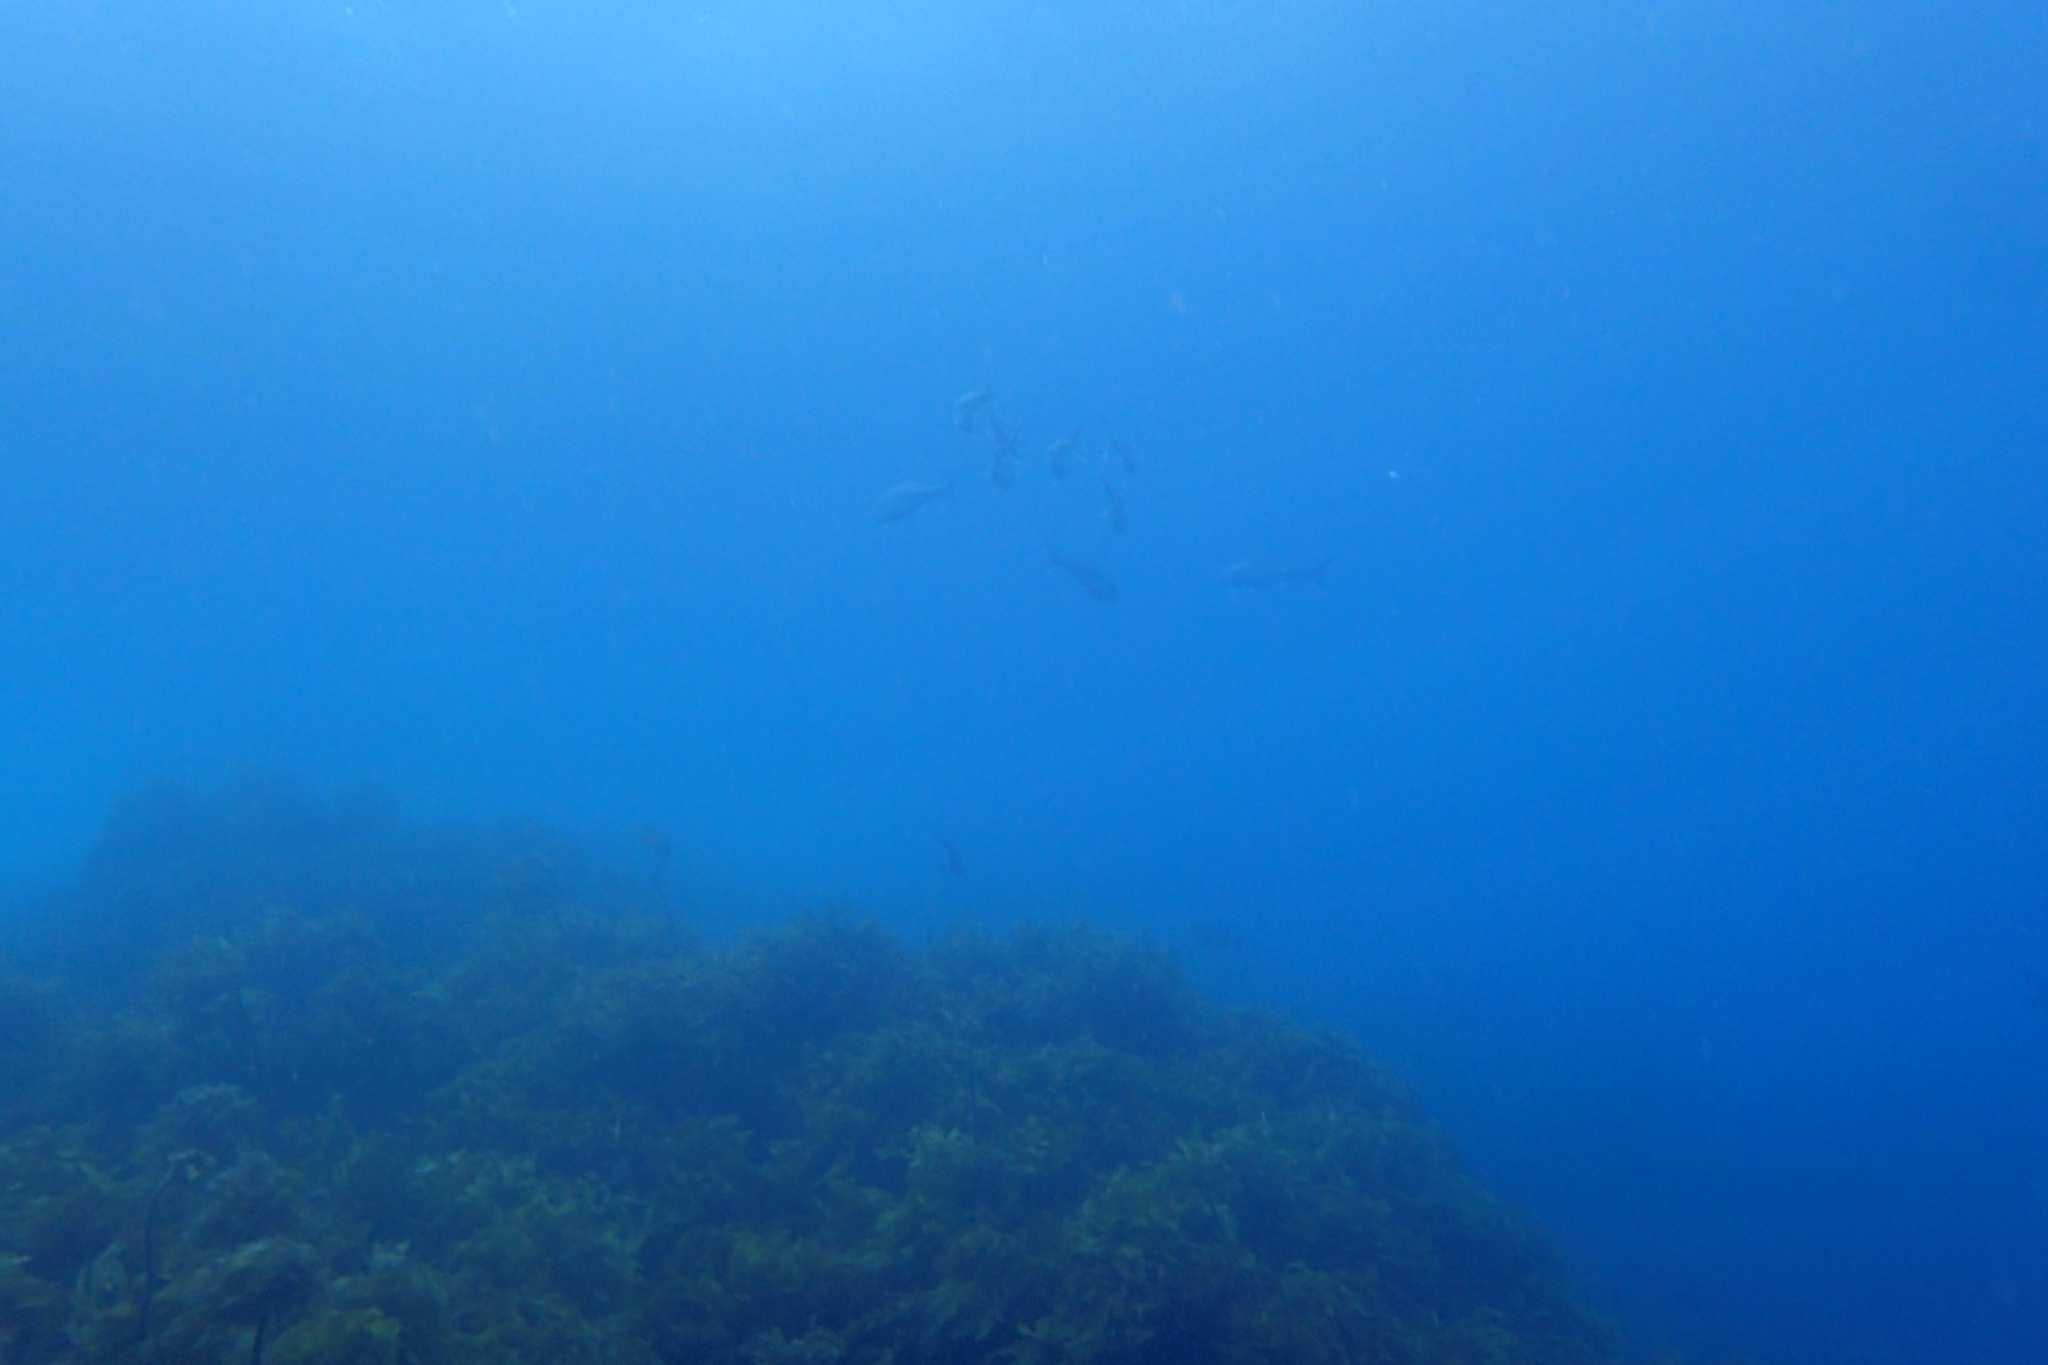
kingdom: Animalia
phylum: Chordata
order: Perciformes
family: Carangidae
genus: Seriola
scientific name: Seriola lalandi
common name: Yellowtail kingfish
